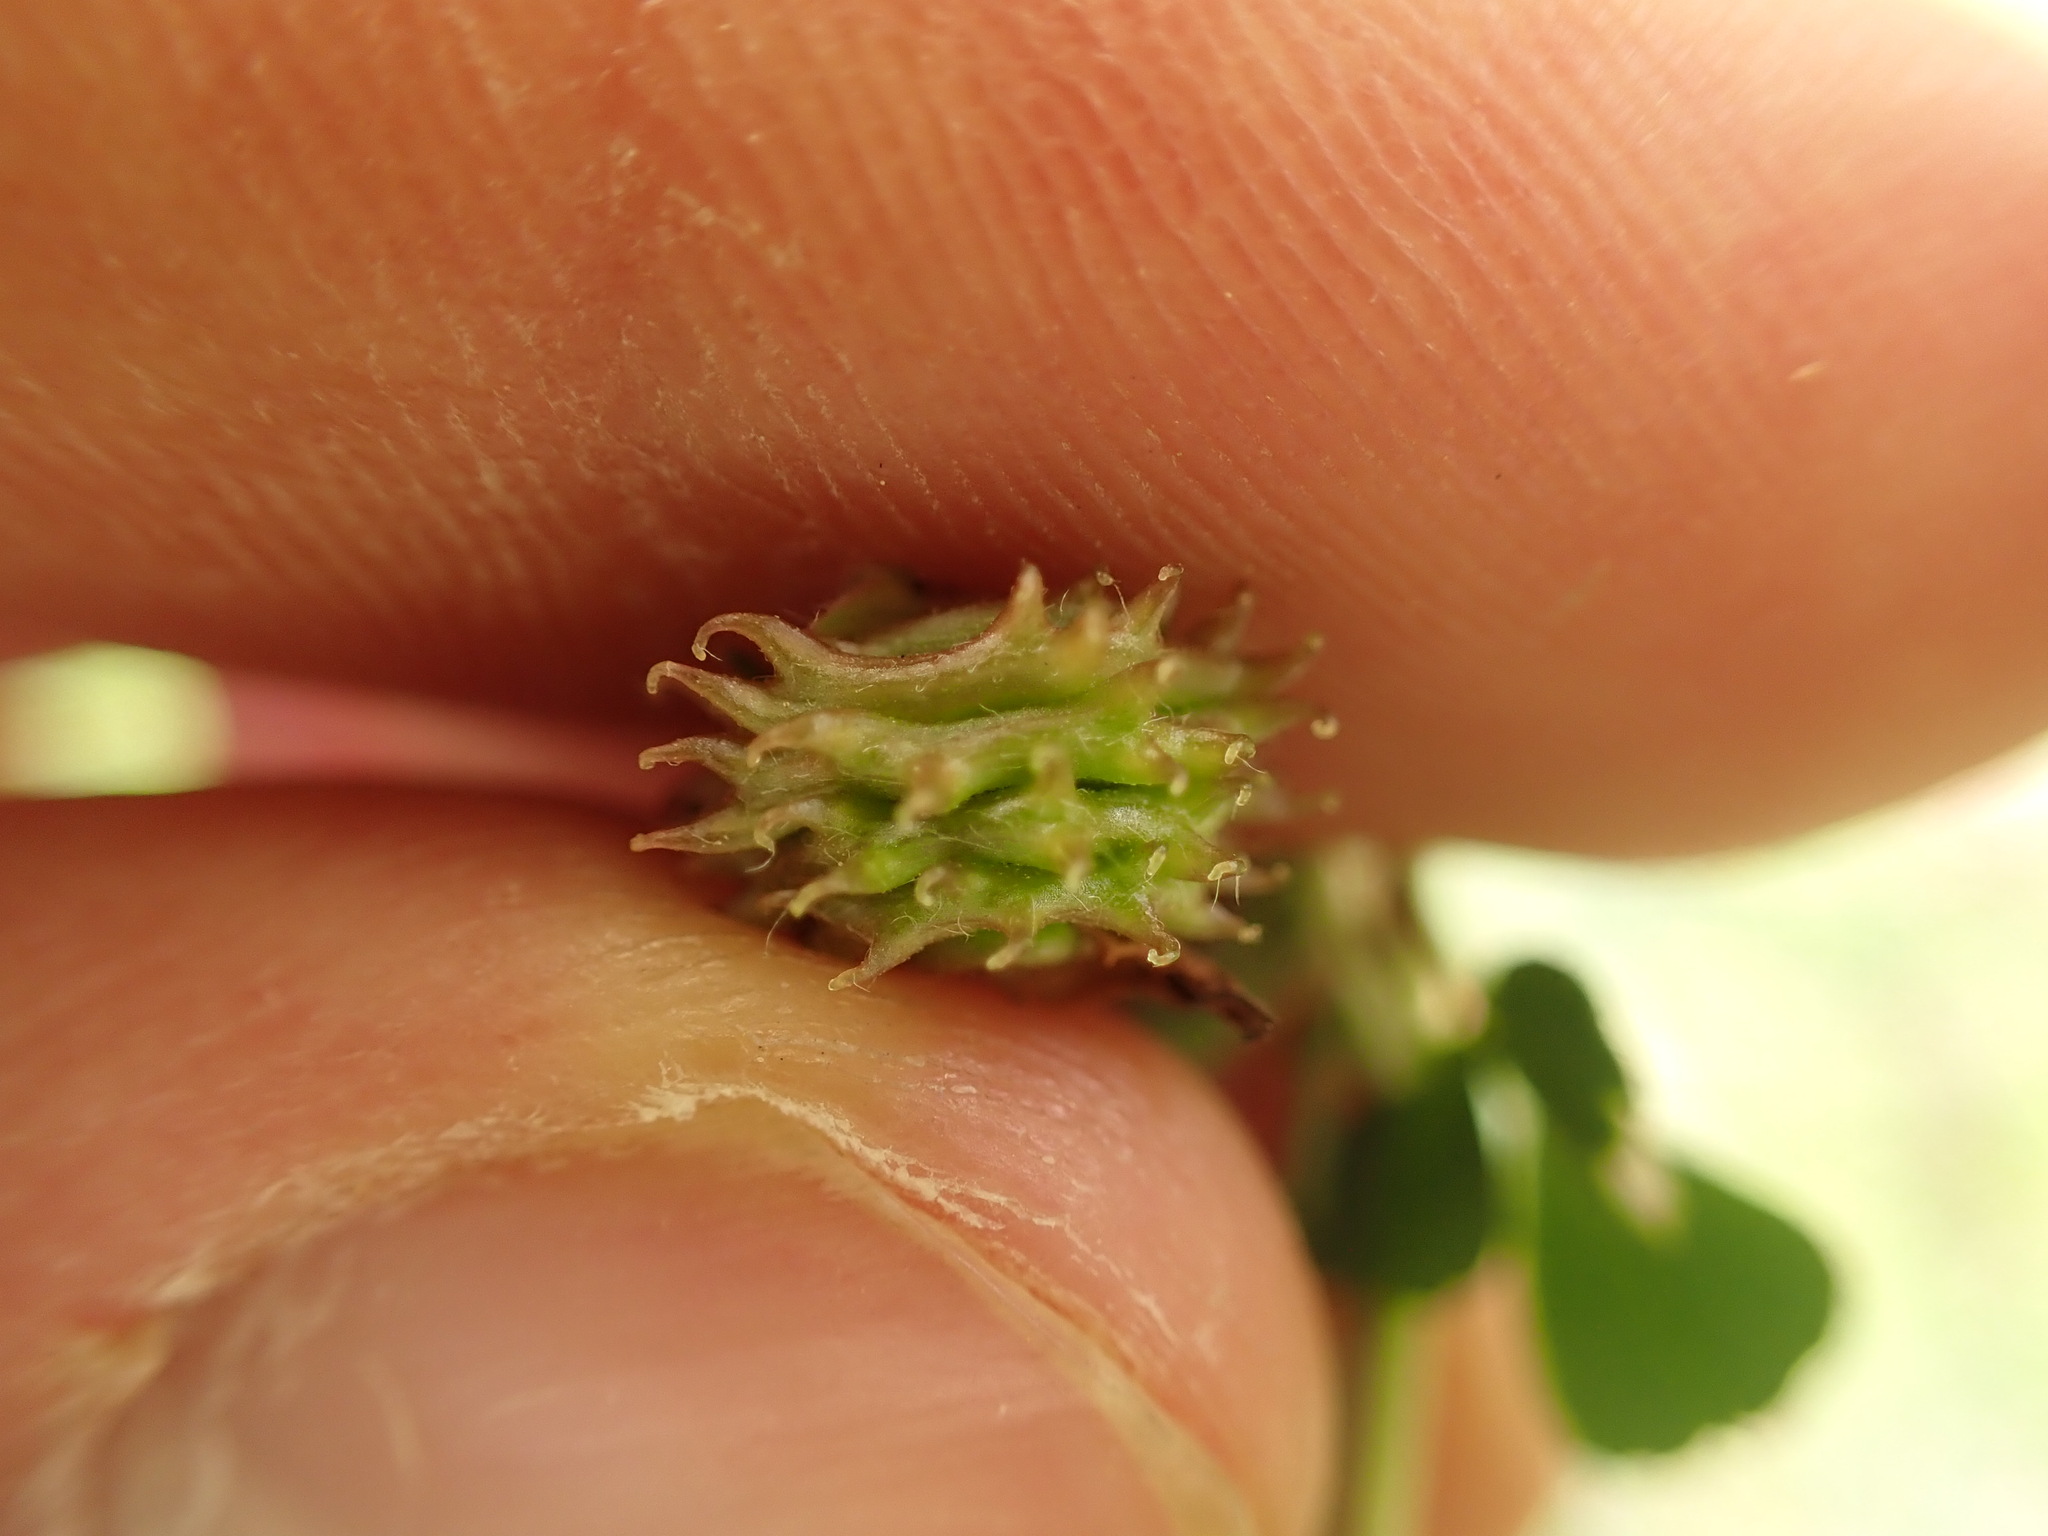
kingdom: Plantae
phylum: Tracheophyta
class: Magnoliopsida
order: Fabales
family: Fabaceae
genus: Medicago
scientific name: Medicago rigidula
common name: Tifton medic
